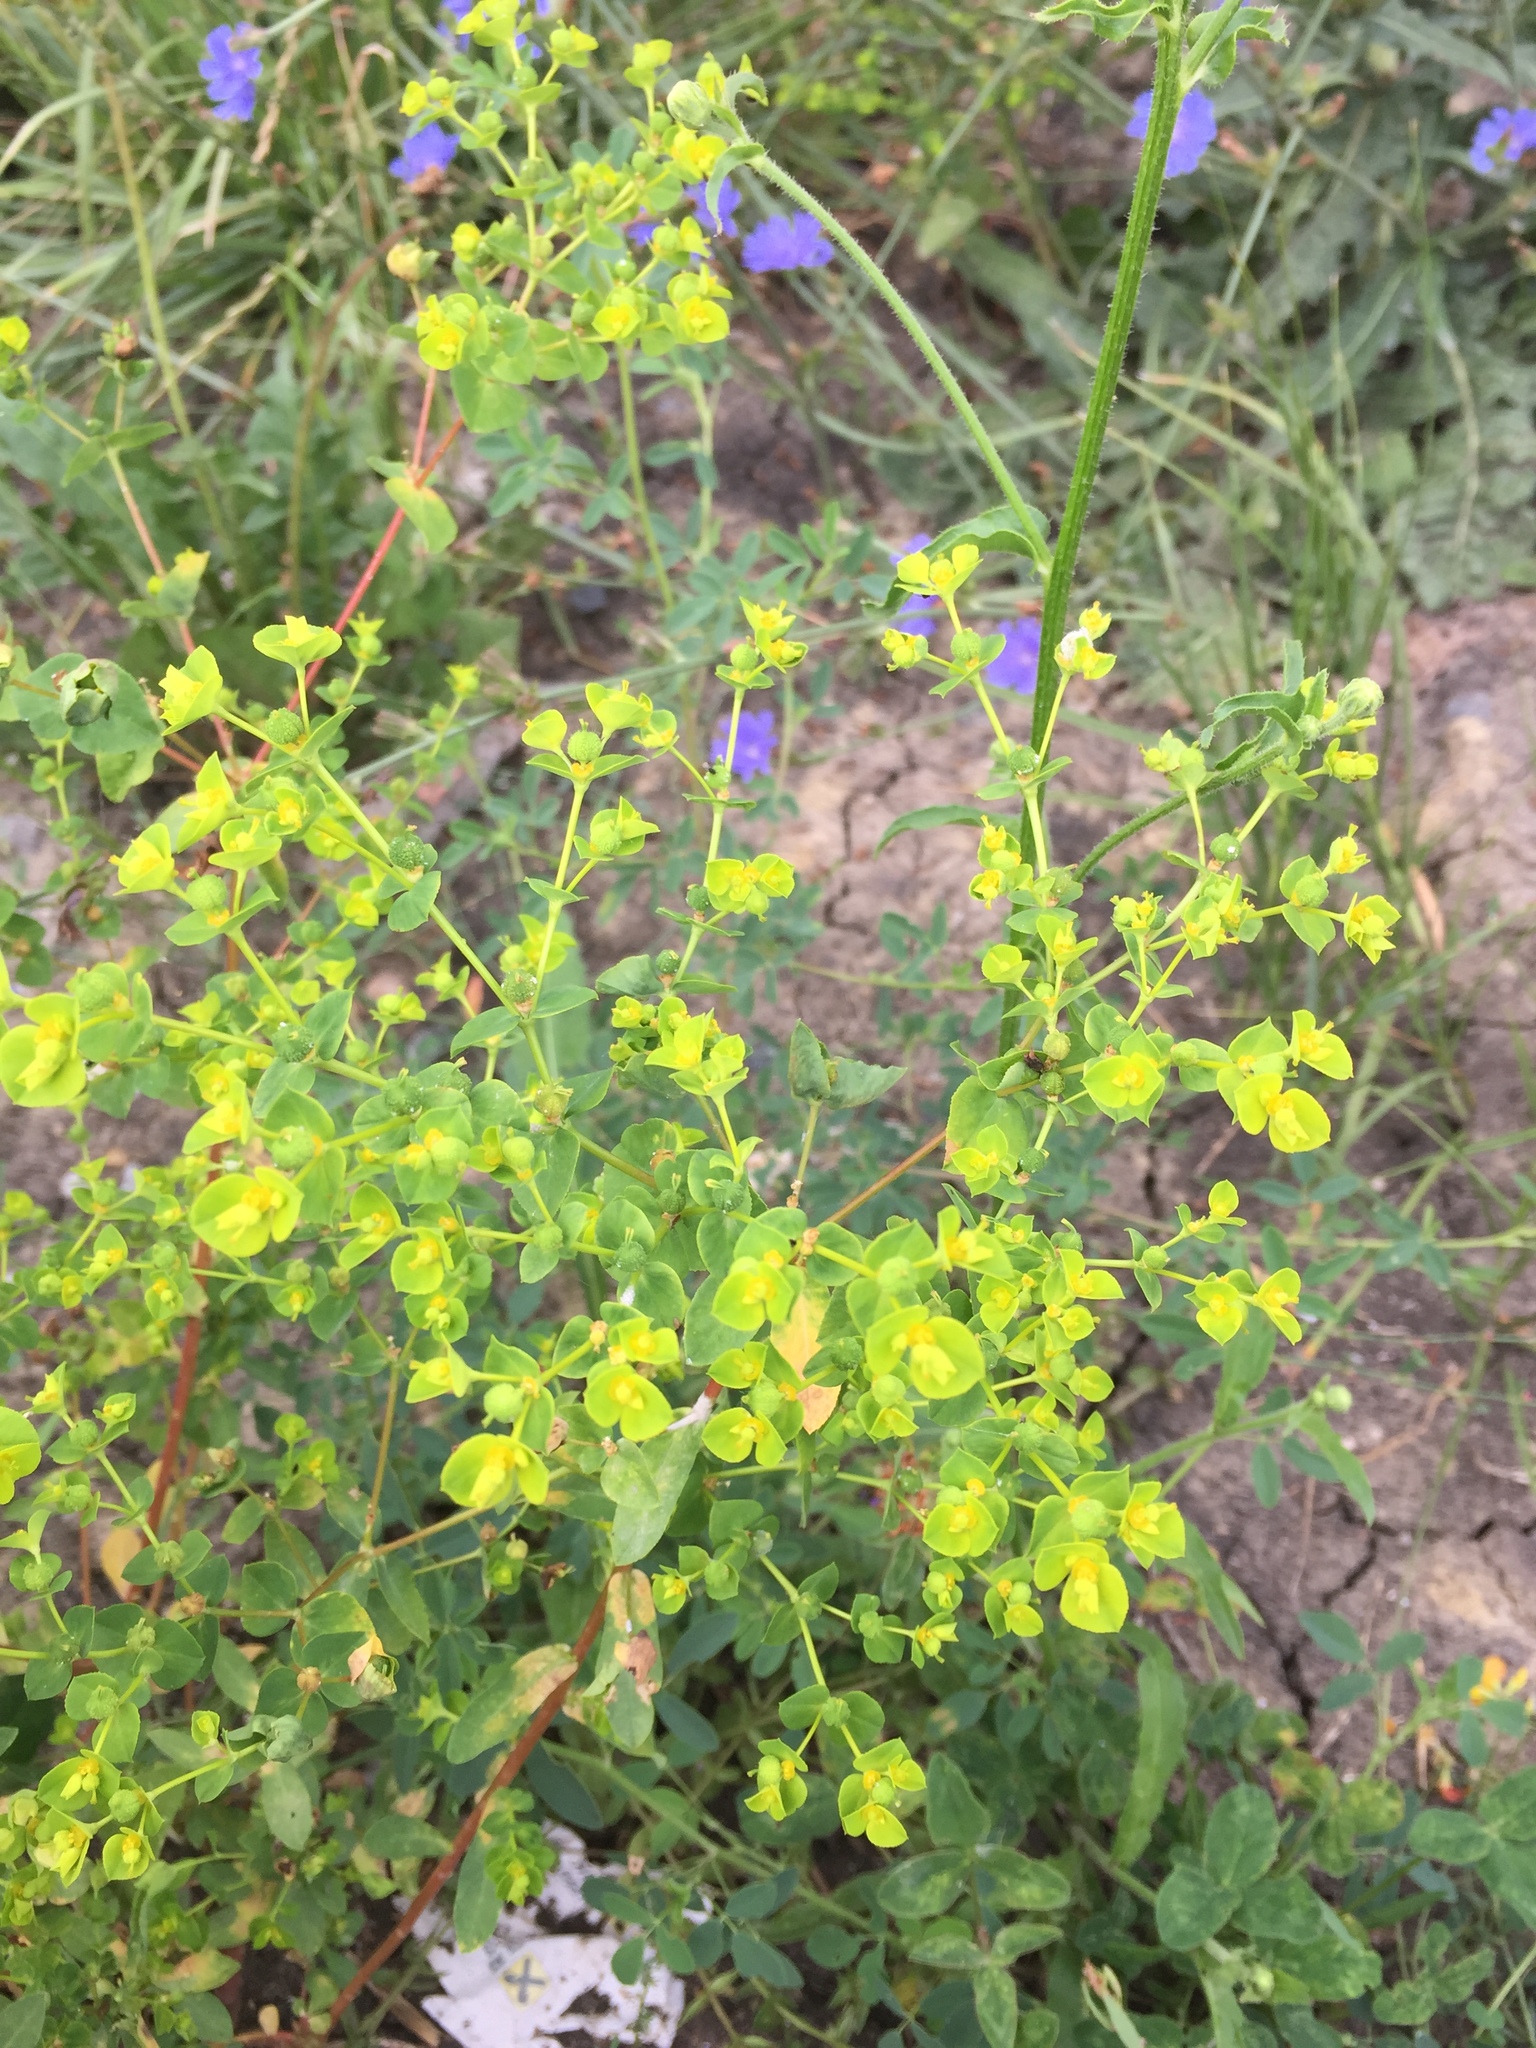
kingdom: Plantae
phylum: Tracheophyta
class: Magnoliopsida
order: Malpighiales
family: Euphorbiaceae
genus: Euphorbia
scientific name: Euphorbia platyphyllos
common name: Broad-leaved spurge
